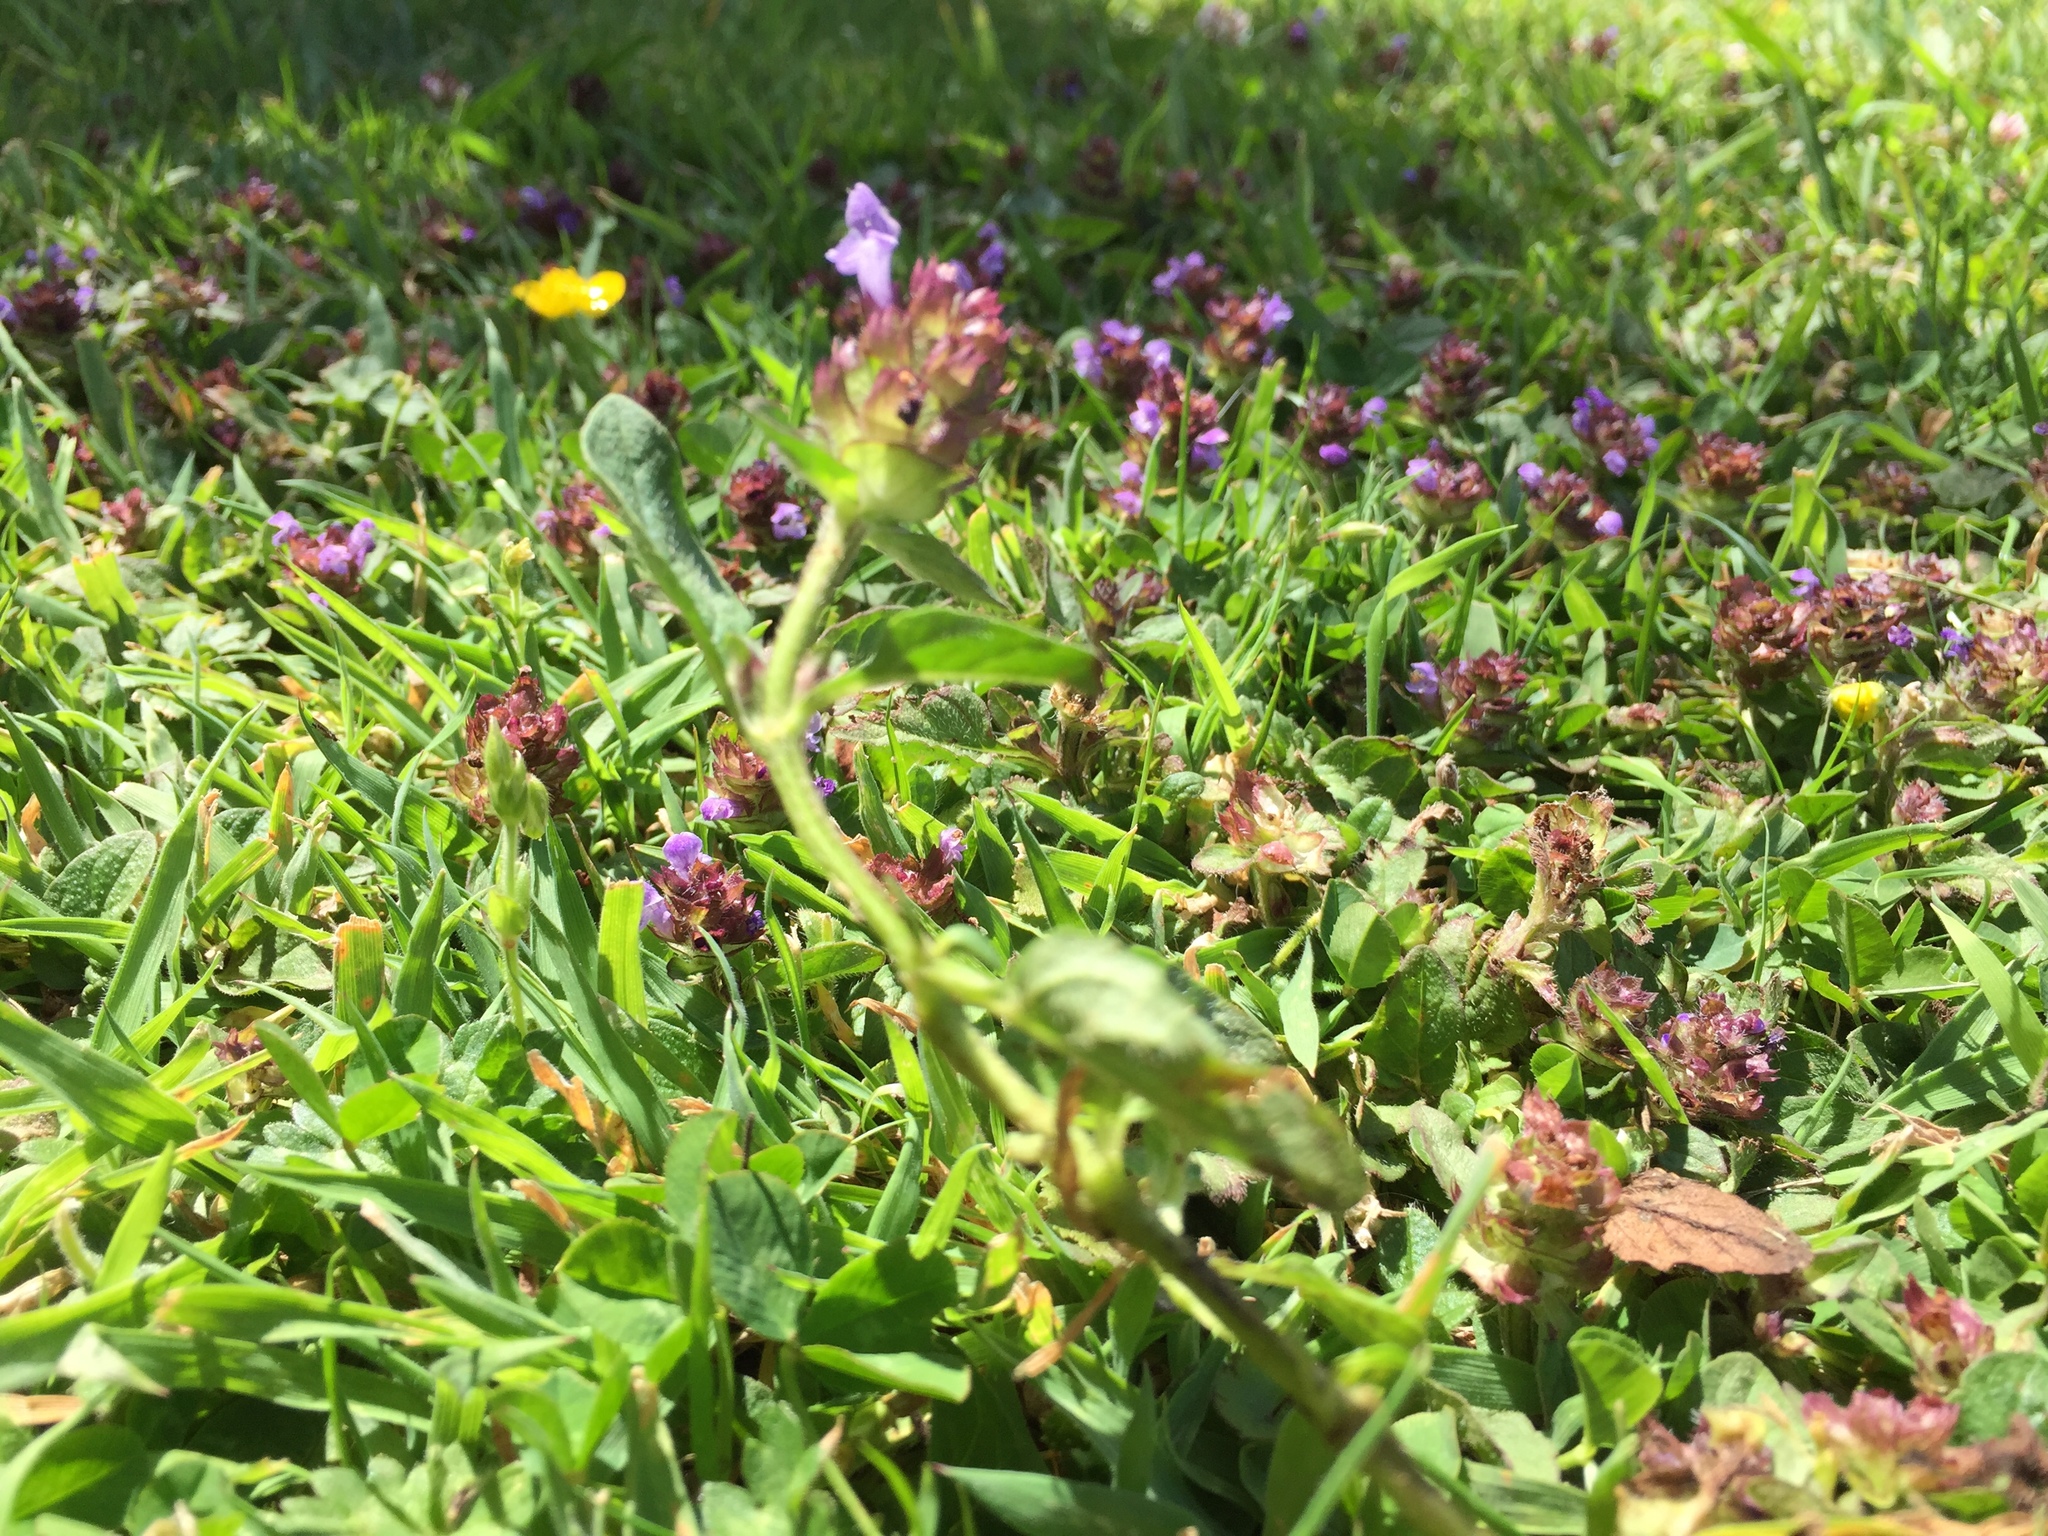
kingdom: Plantae
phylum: Tracheophyta
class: Magnoliopsida
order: Lamiales
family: Lamiaceae
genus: Prunella
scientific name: Prunella vulgaris
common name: Heal-all
